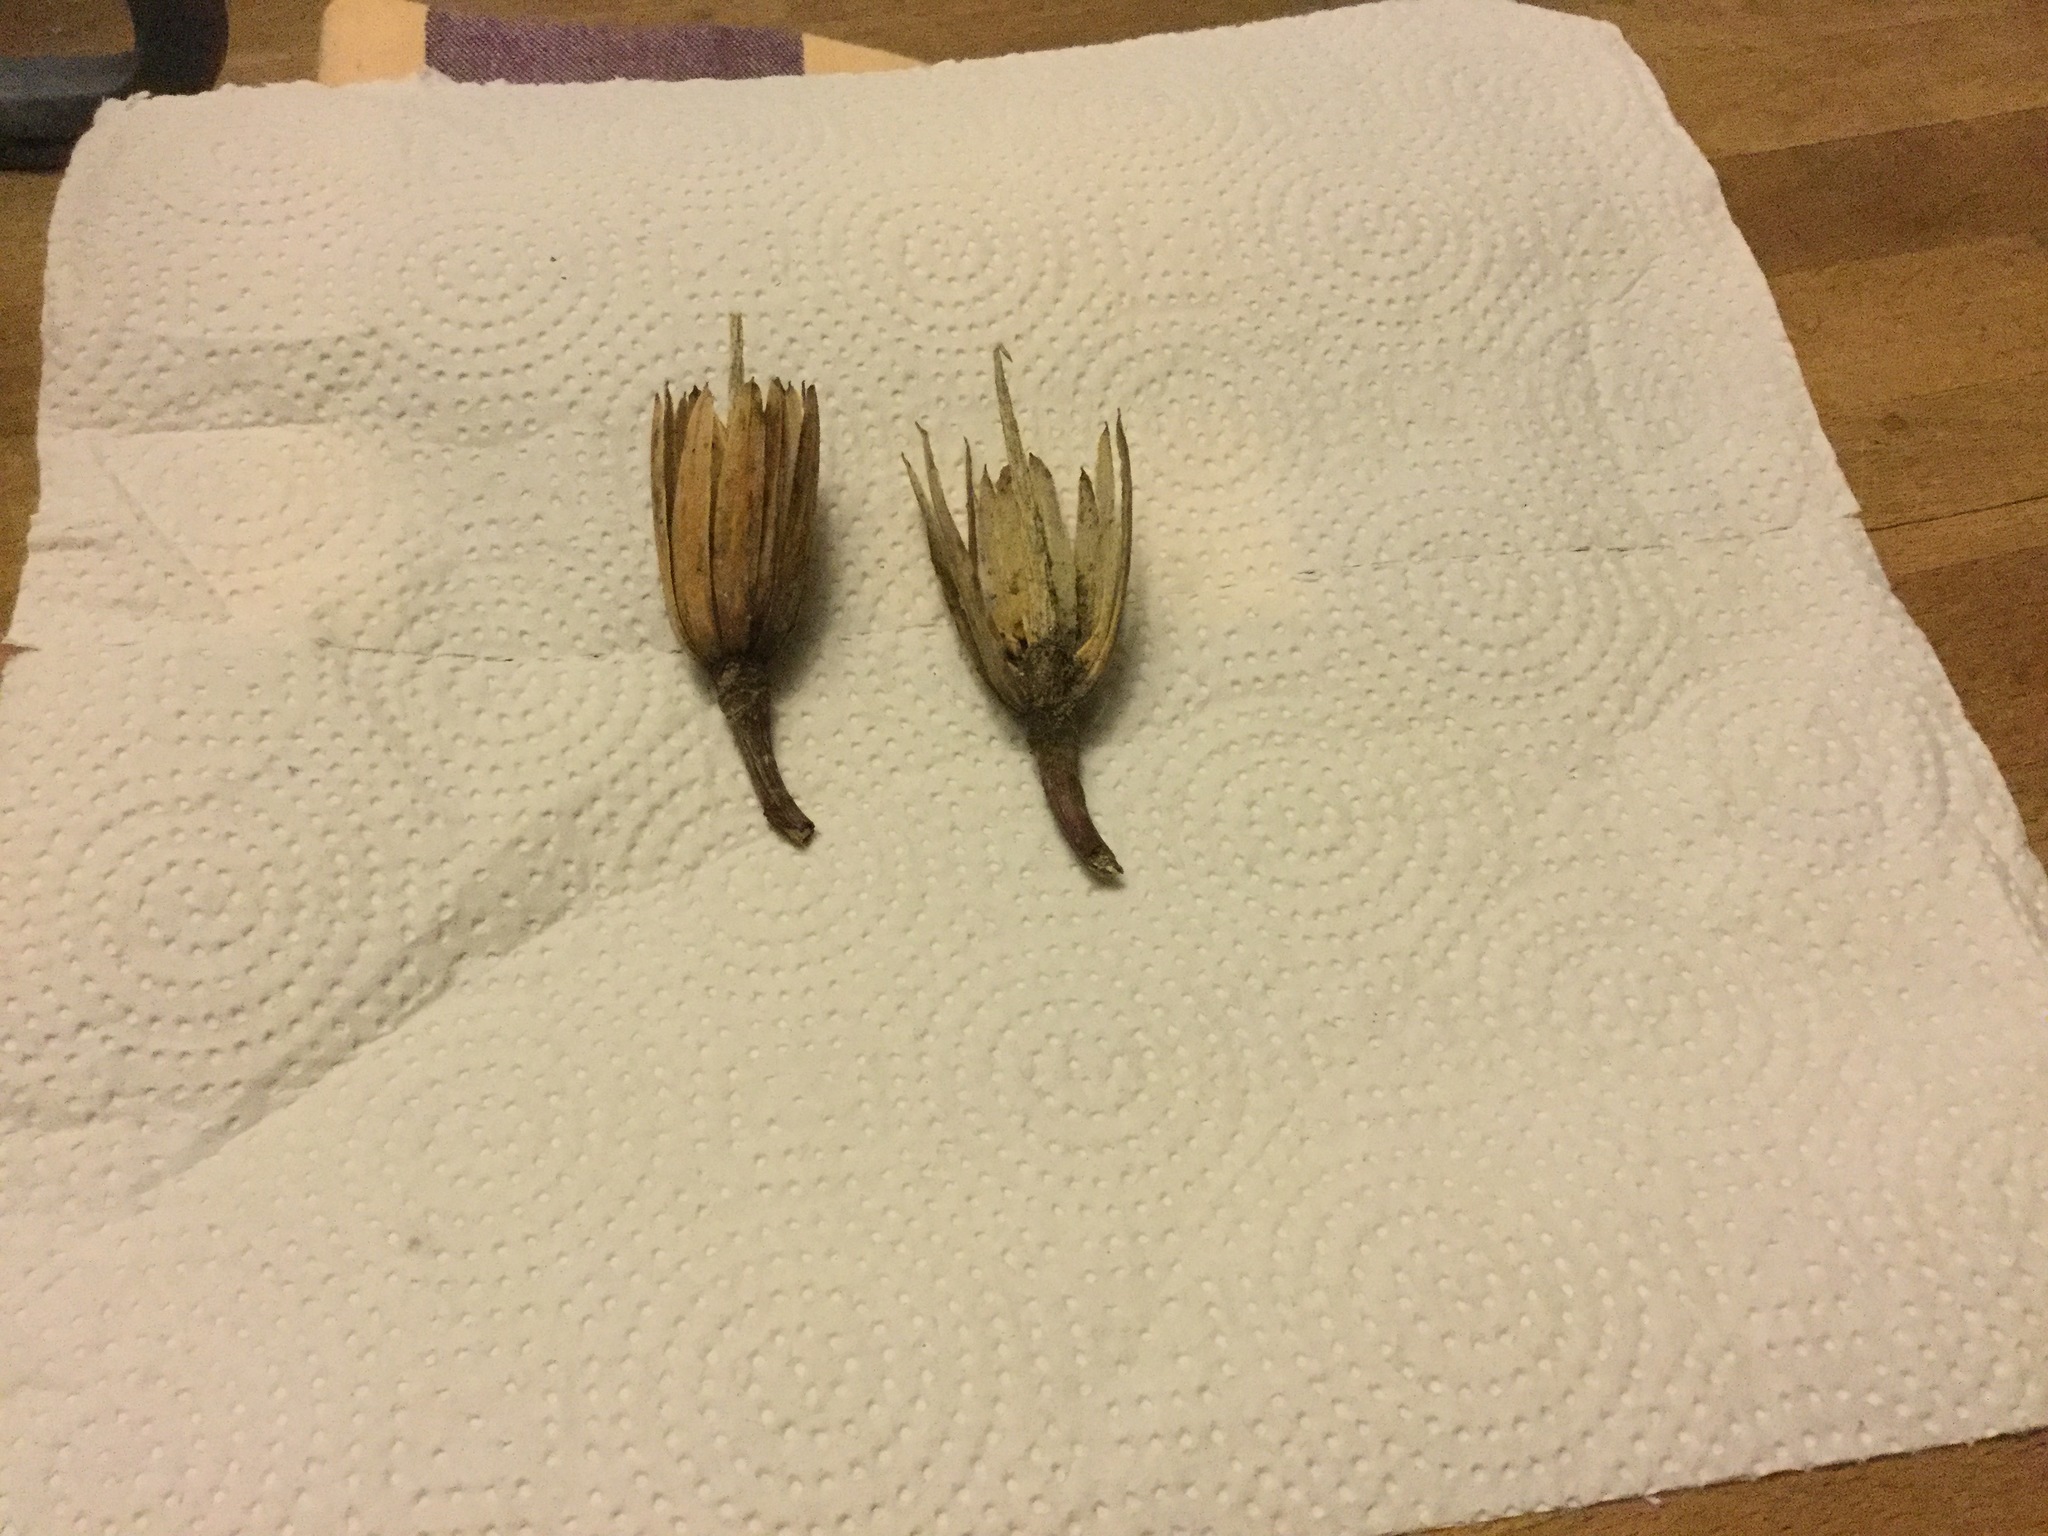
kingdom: Plantae
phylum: Tracheophyta
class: Magnoliopsida
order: Magnoliales
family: Magnoliaceae
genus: Liriodendron
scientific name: Liriodendron tulipifera
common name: Tulip tree
